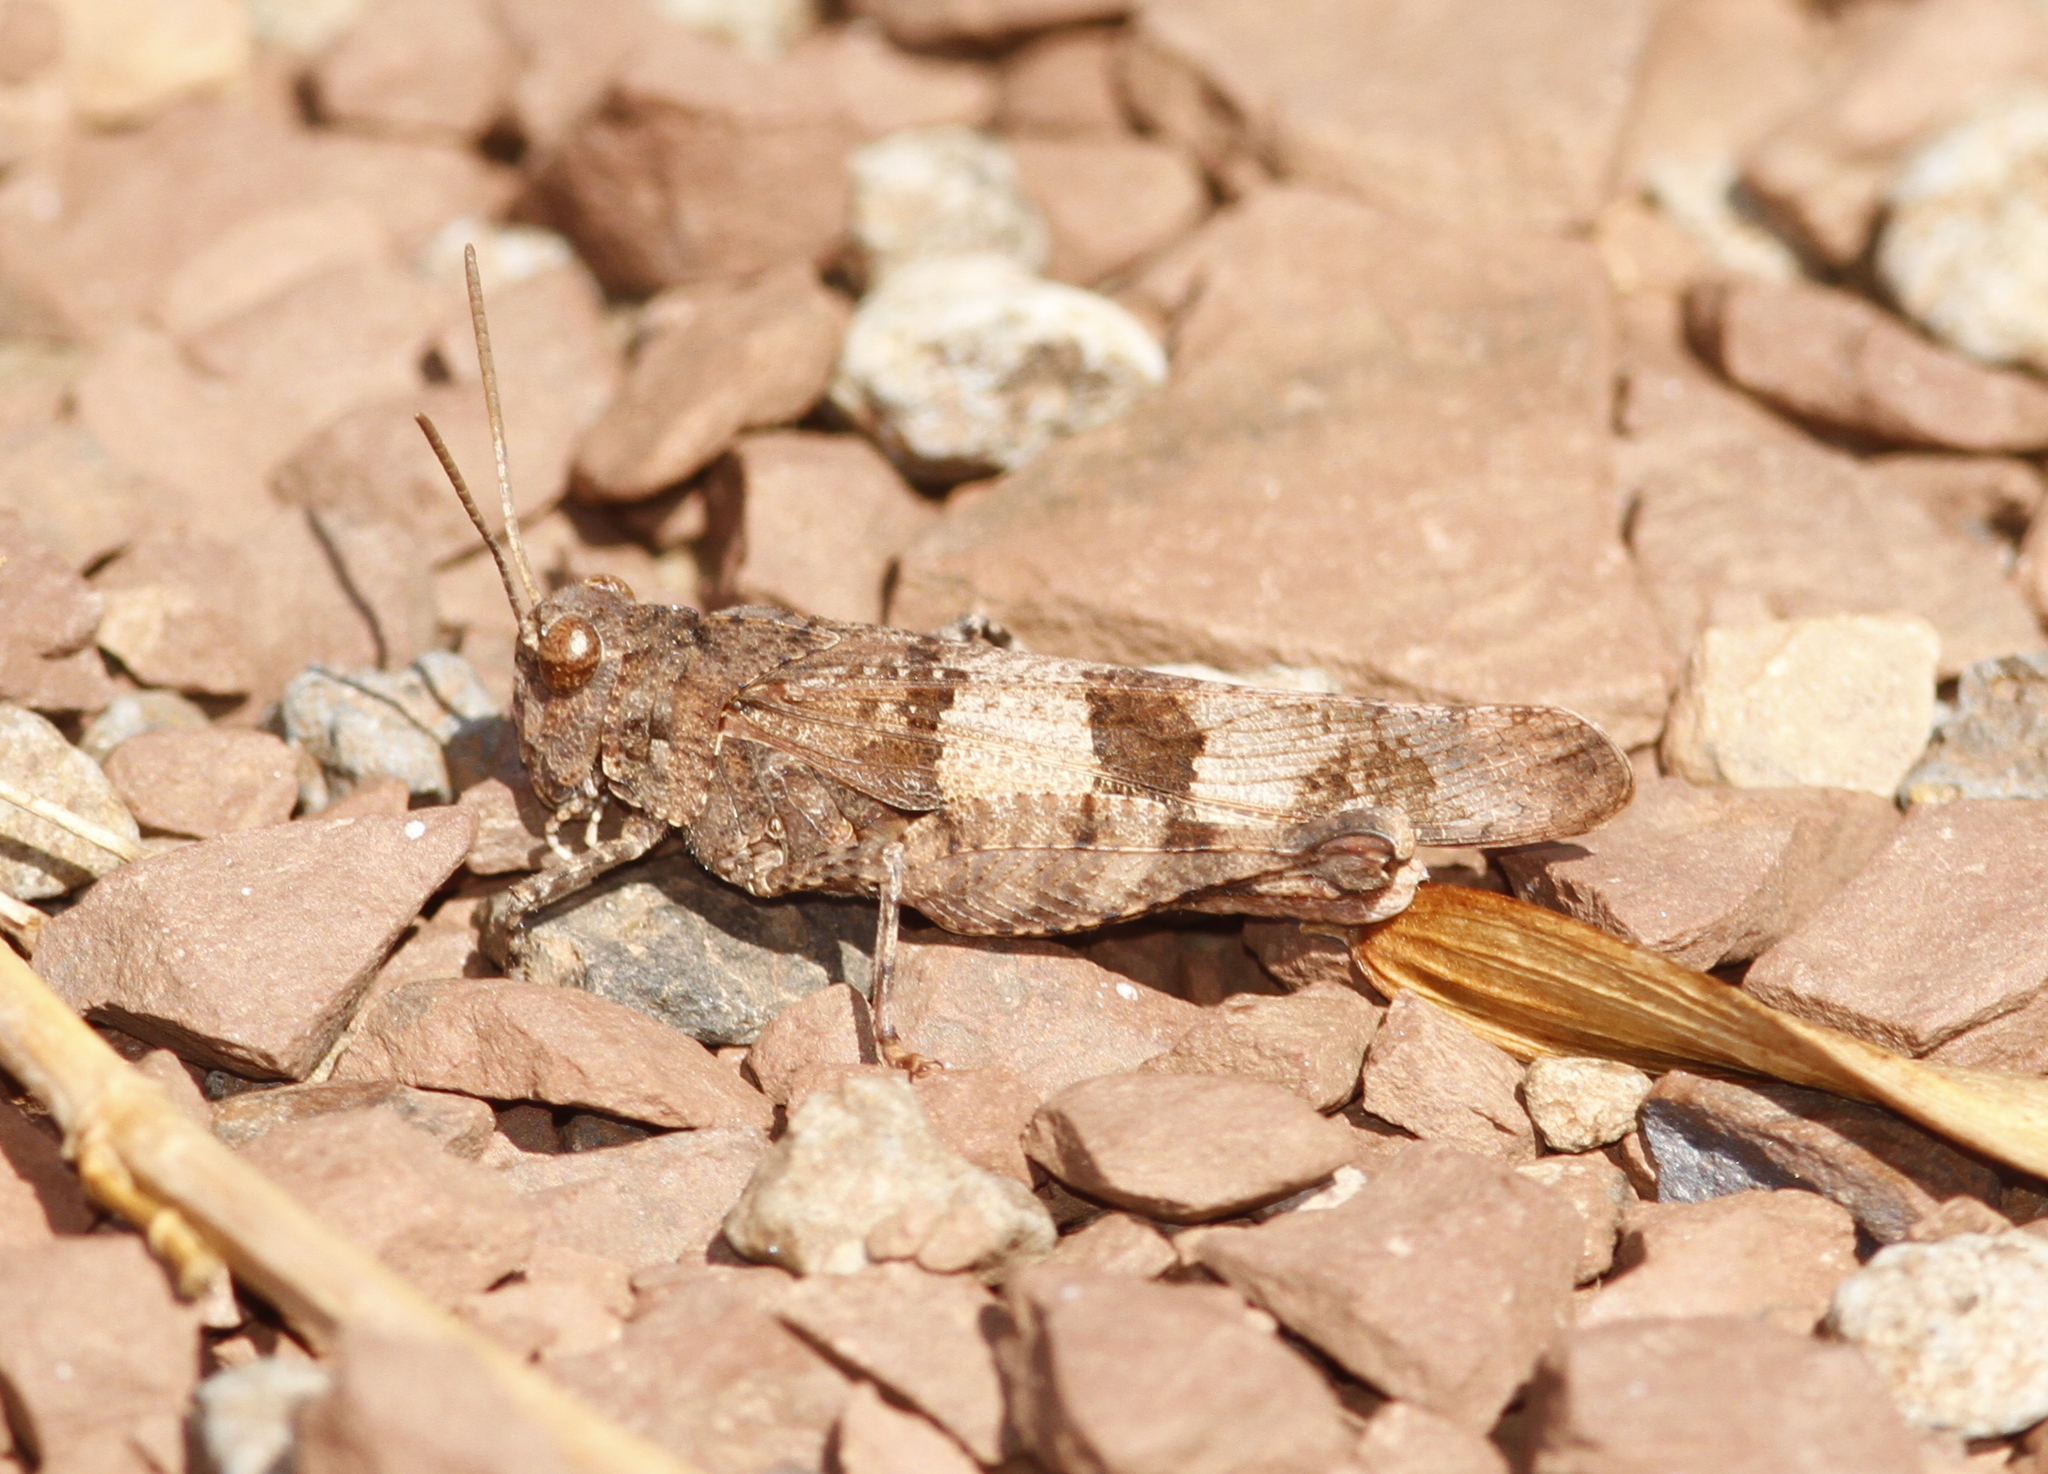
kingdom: Animalia
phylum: Arthropoda
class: Insecta
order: Orthoptera
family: Acrididae
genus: Oedipoda
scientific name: Oedipoda caerulescens
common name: Blue-winged grasshopper
